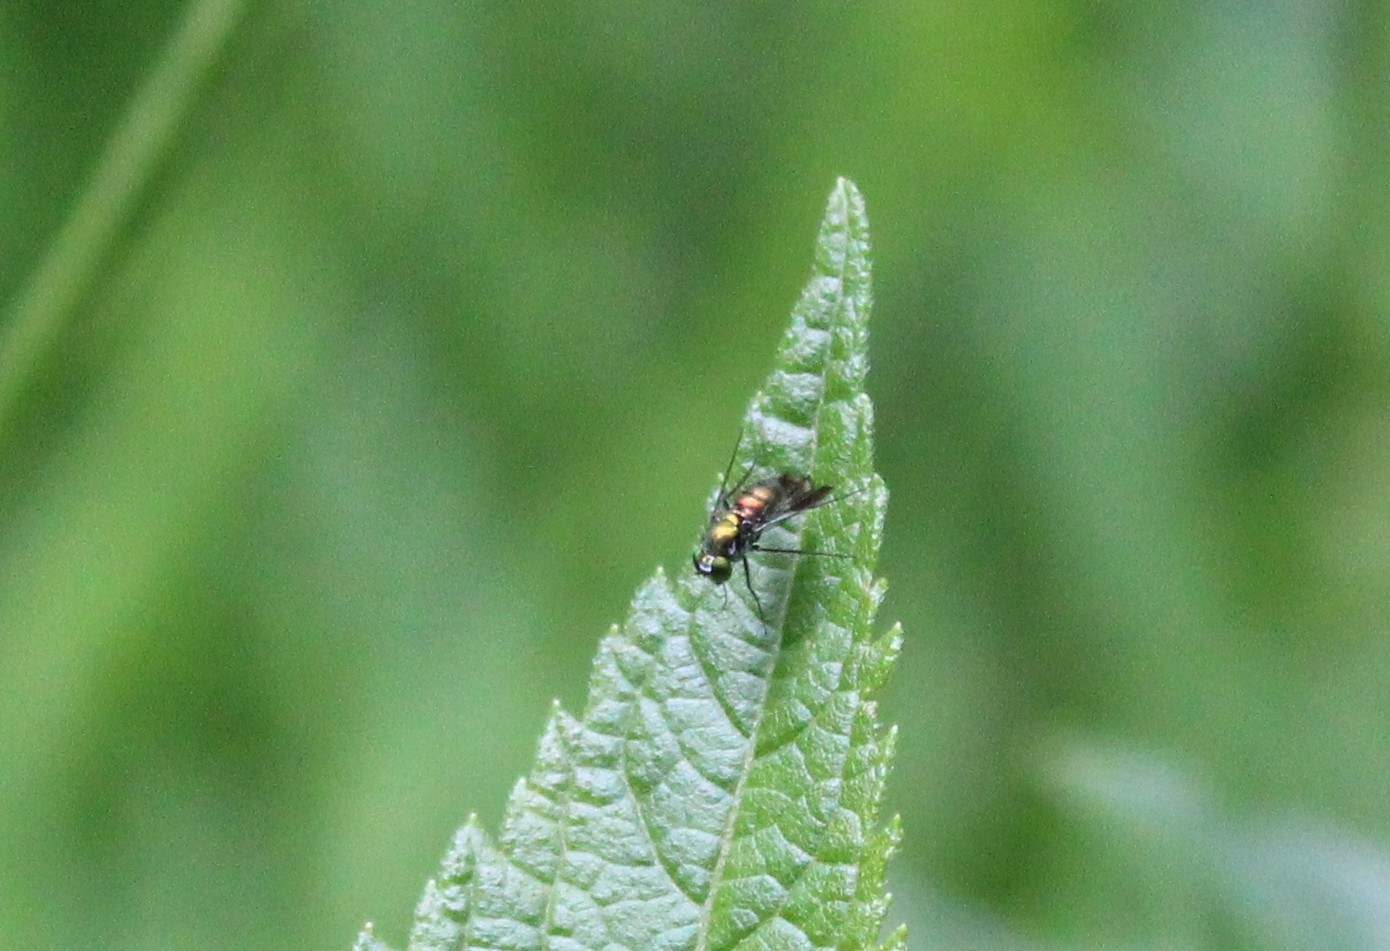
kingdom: Animalia
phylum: Arthropoda
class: Insecta
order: Diptera
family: Dolichopodidae
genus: Condylostylus
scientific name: Condylostylus patibulatus
